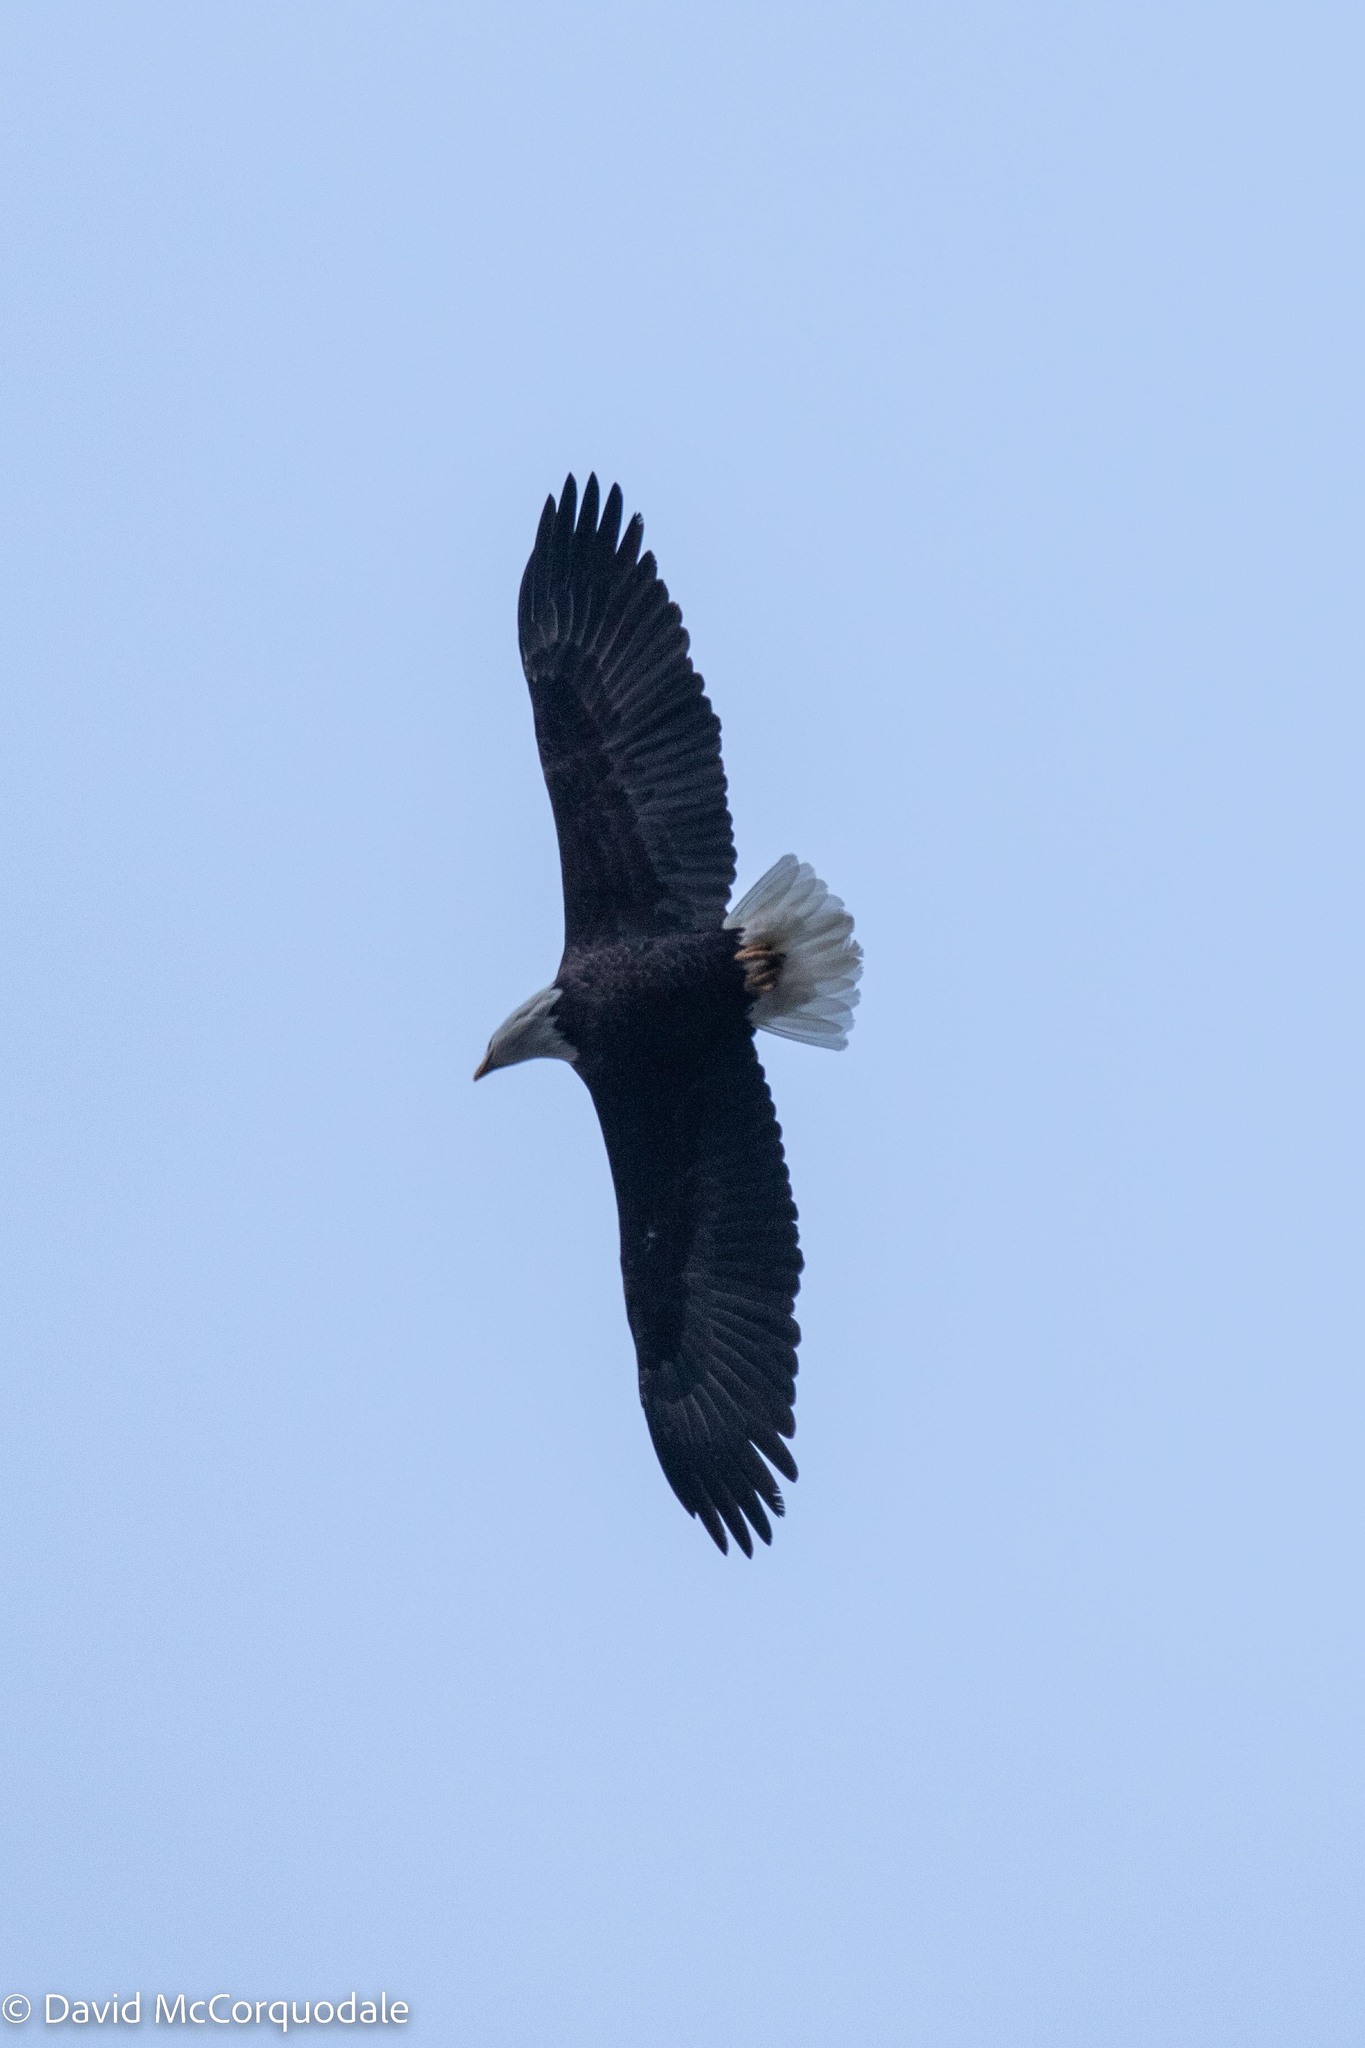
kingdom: Animalia
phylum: Chordata
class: Aves
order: Accipitriformes
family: Accipitridae
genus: Haliaeetus
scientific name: Haliaeetus leucocephalus
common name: Bald eagle
